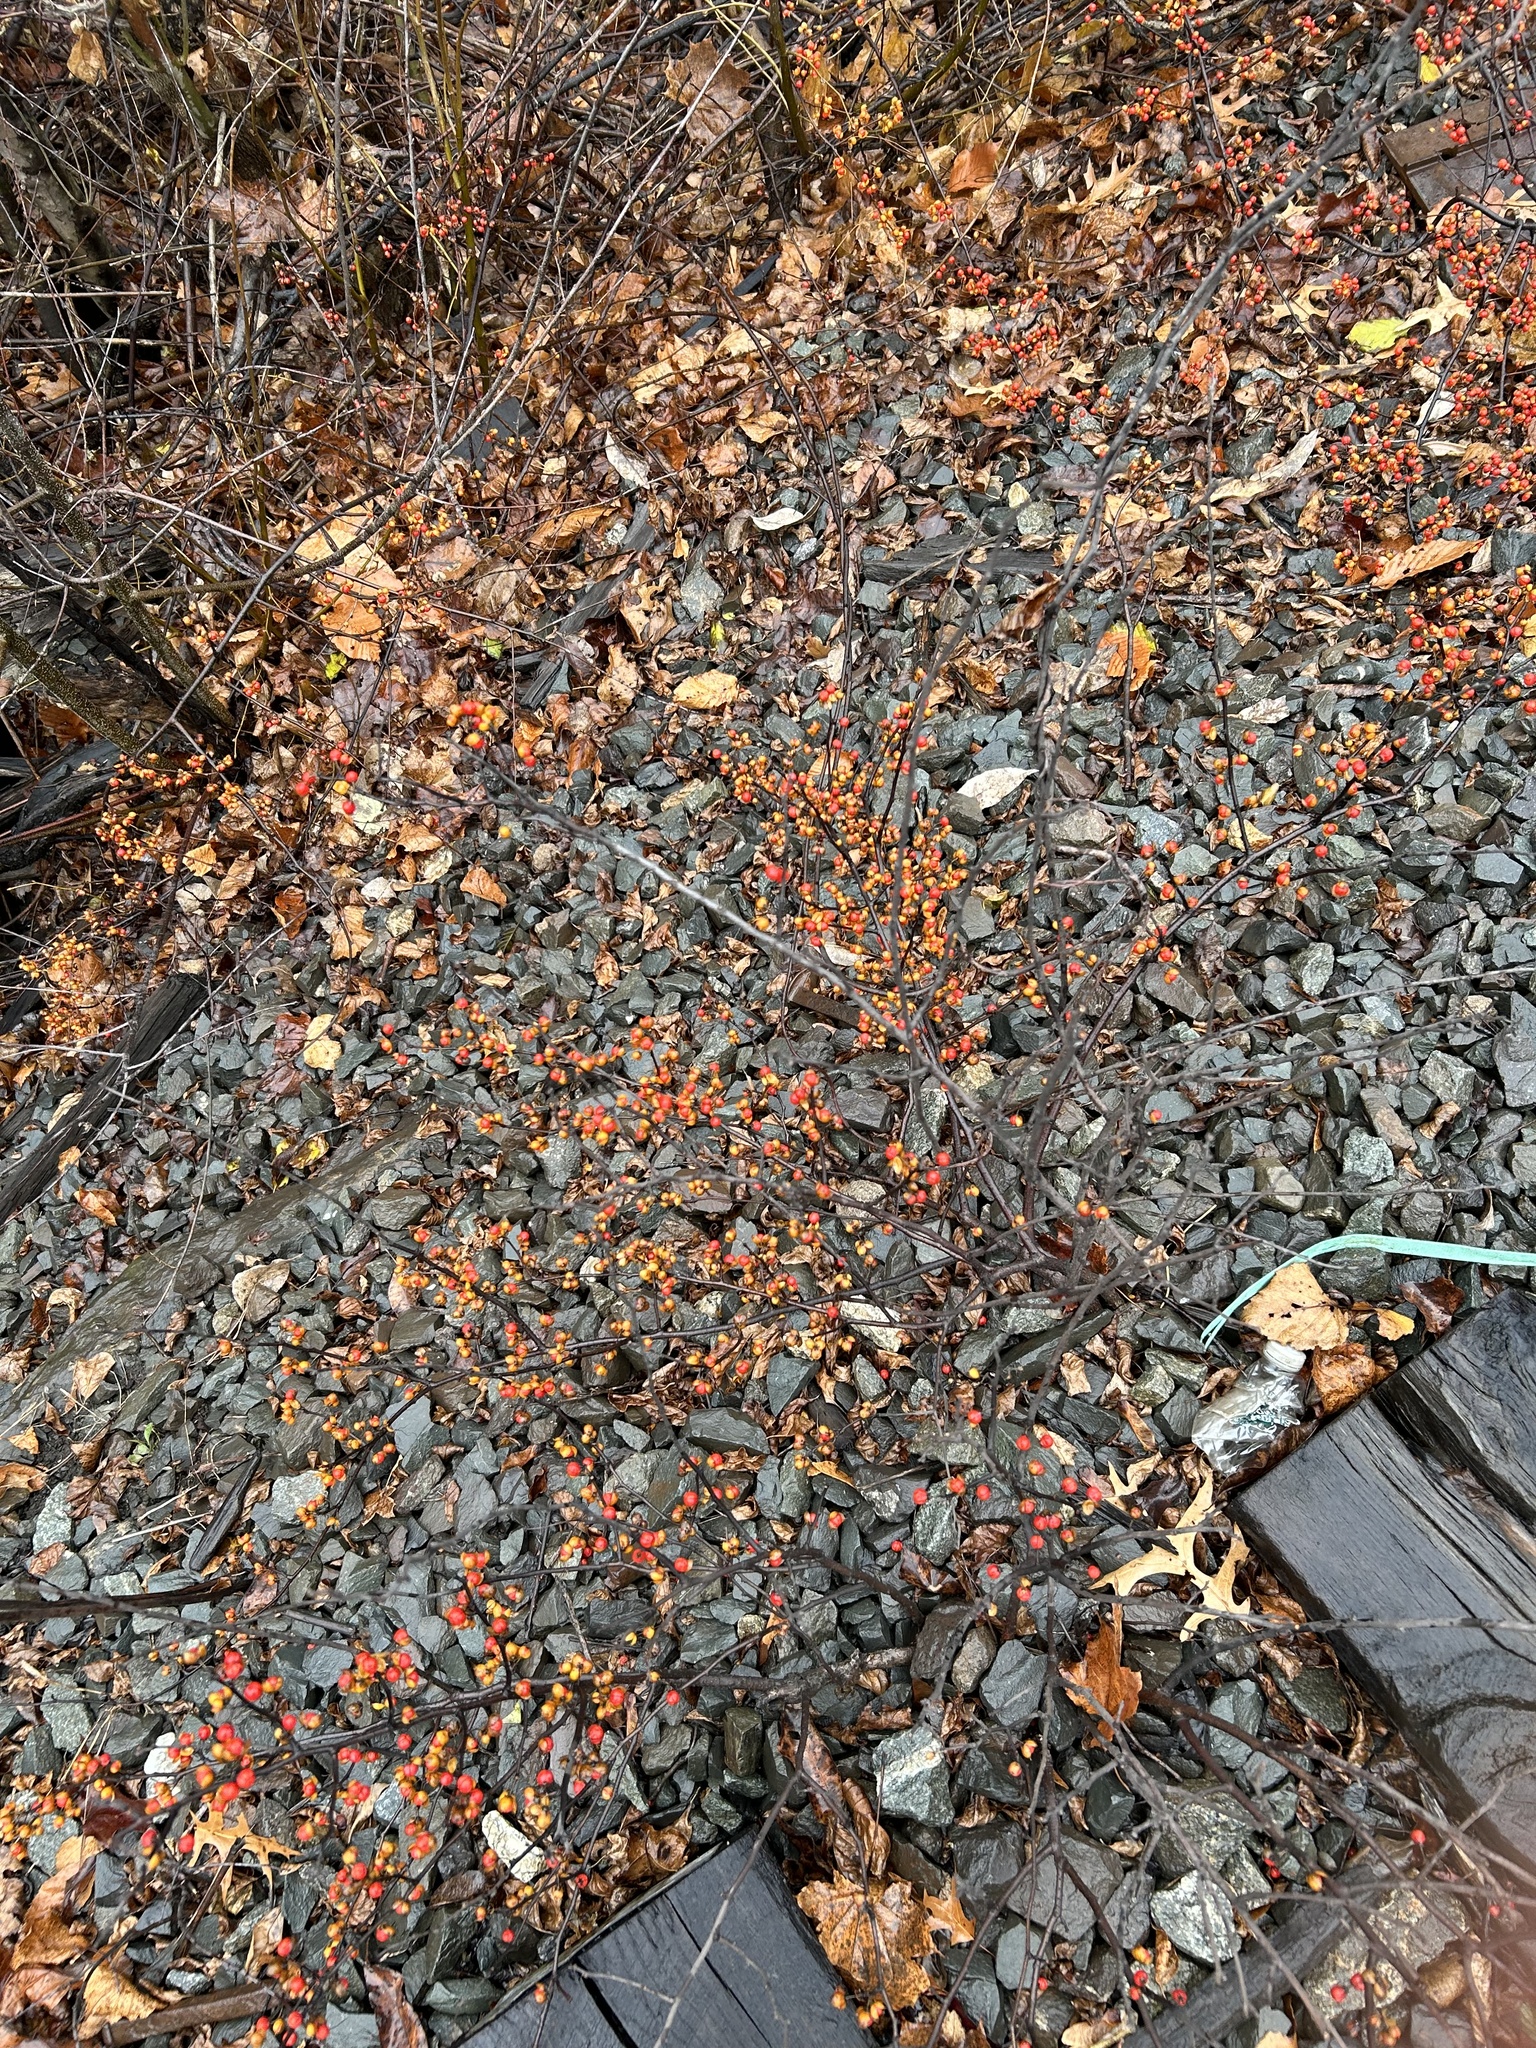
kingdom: Plantae
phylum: Tracheophyta
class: Magnoliopsida
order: Celastrales
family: Celastraceae
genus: Celastrus
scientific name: Celastrus orbiculatus
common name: Oriental bittersweet
